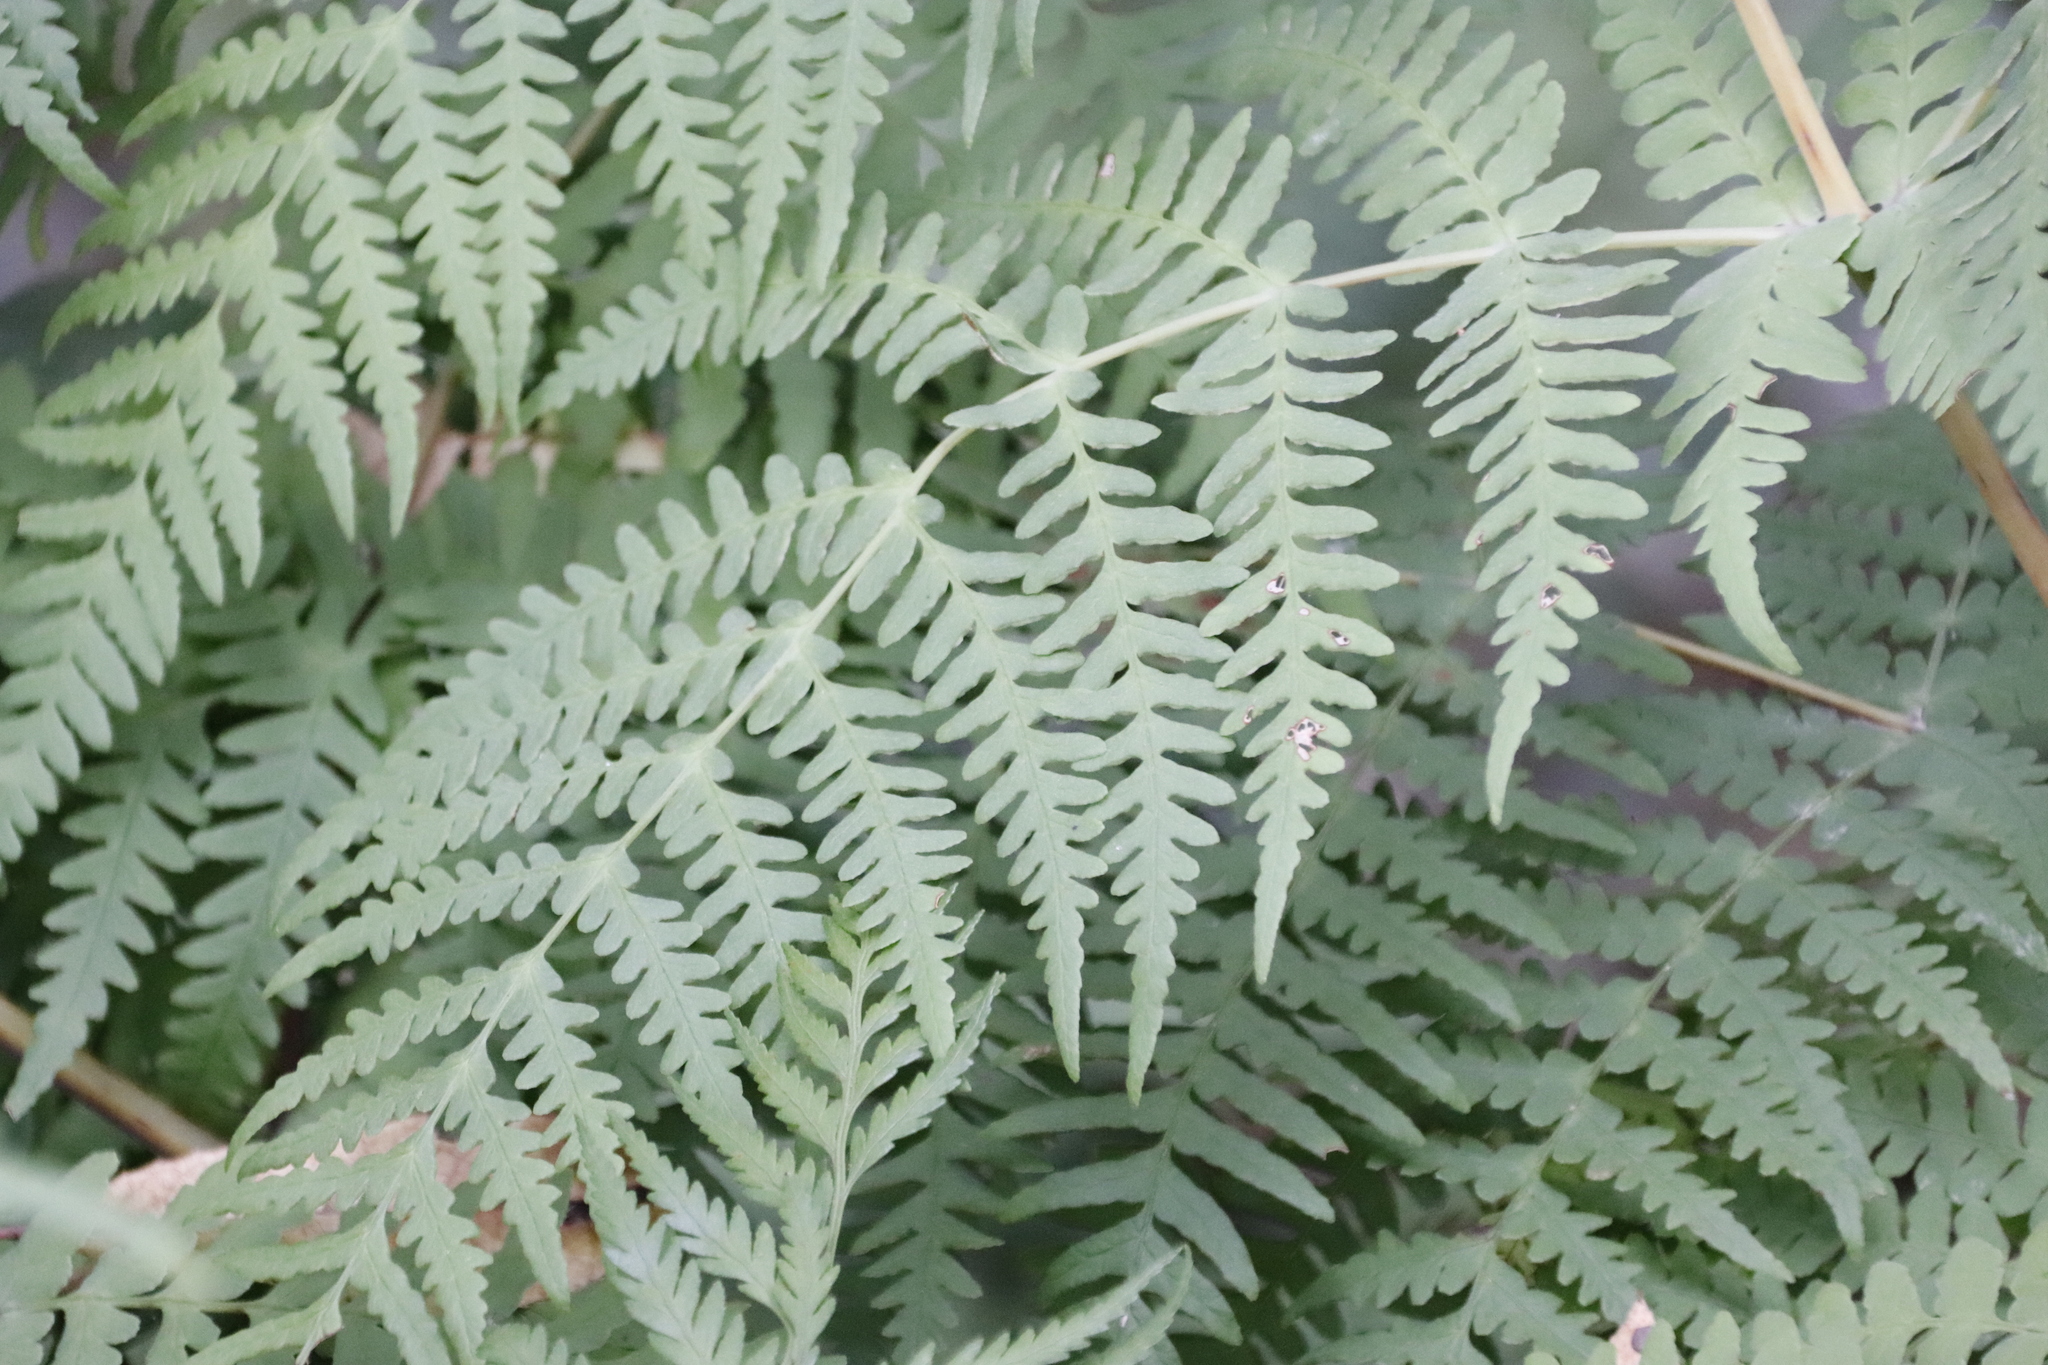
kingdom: Plantae
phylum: Tracheophyta
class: Polypodiopsida
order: Polypodiales
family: Dennstaedtiaceae
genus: Histiopteris
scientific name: Histiopteris incisa
